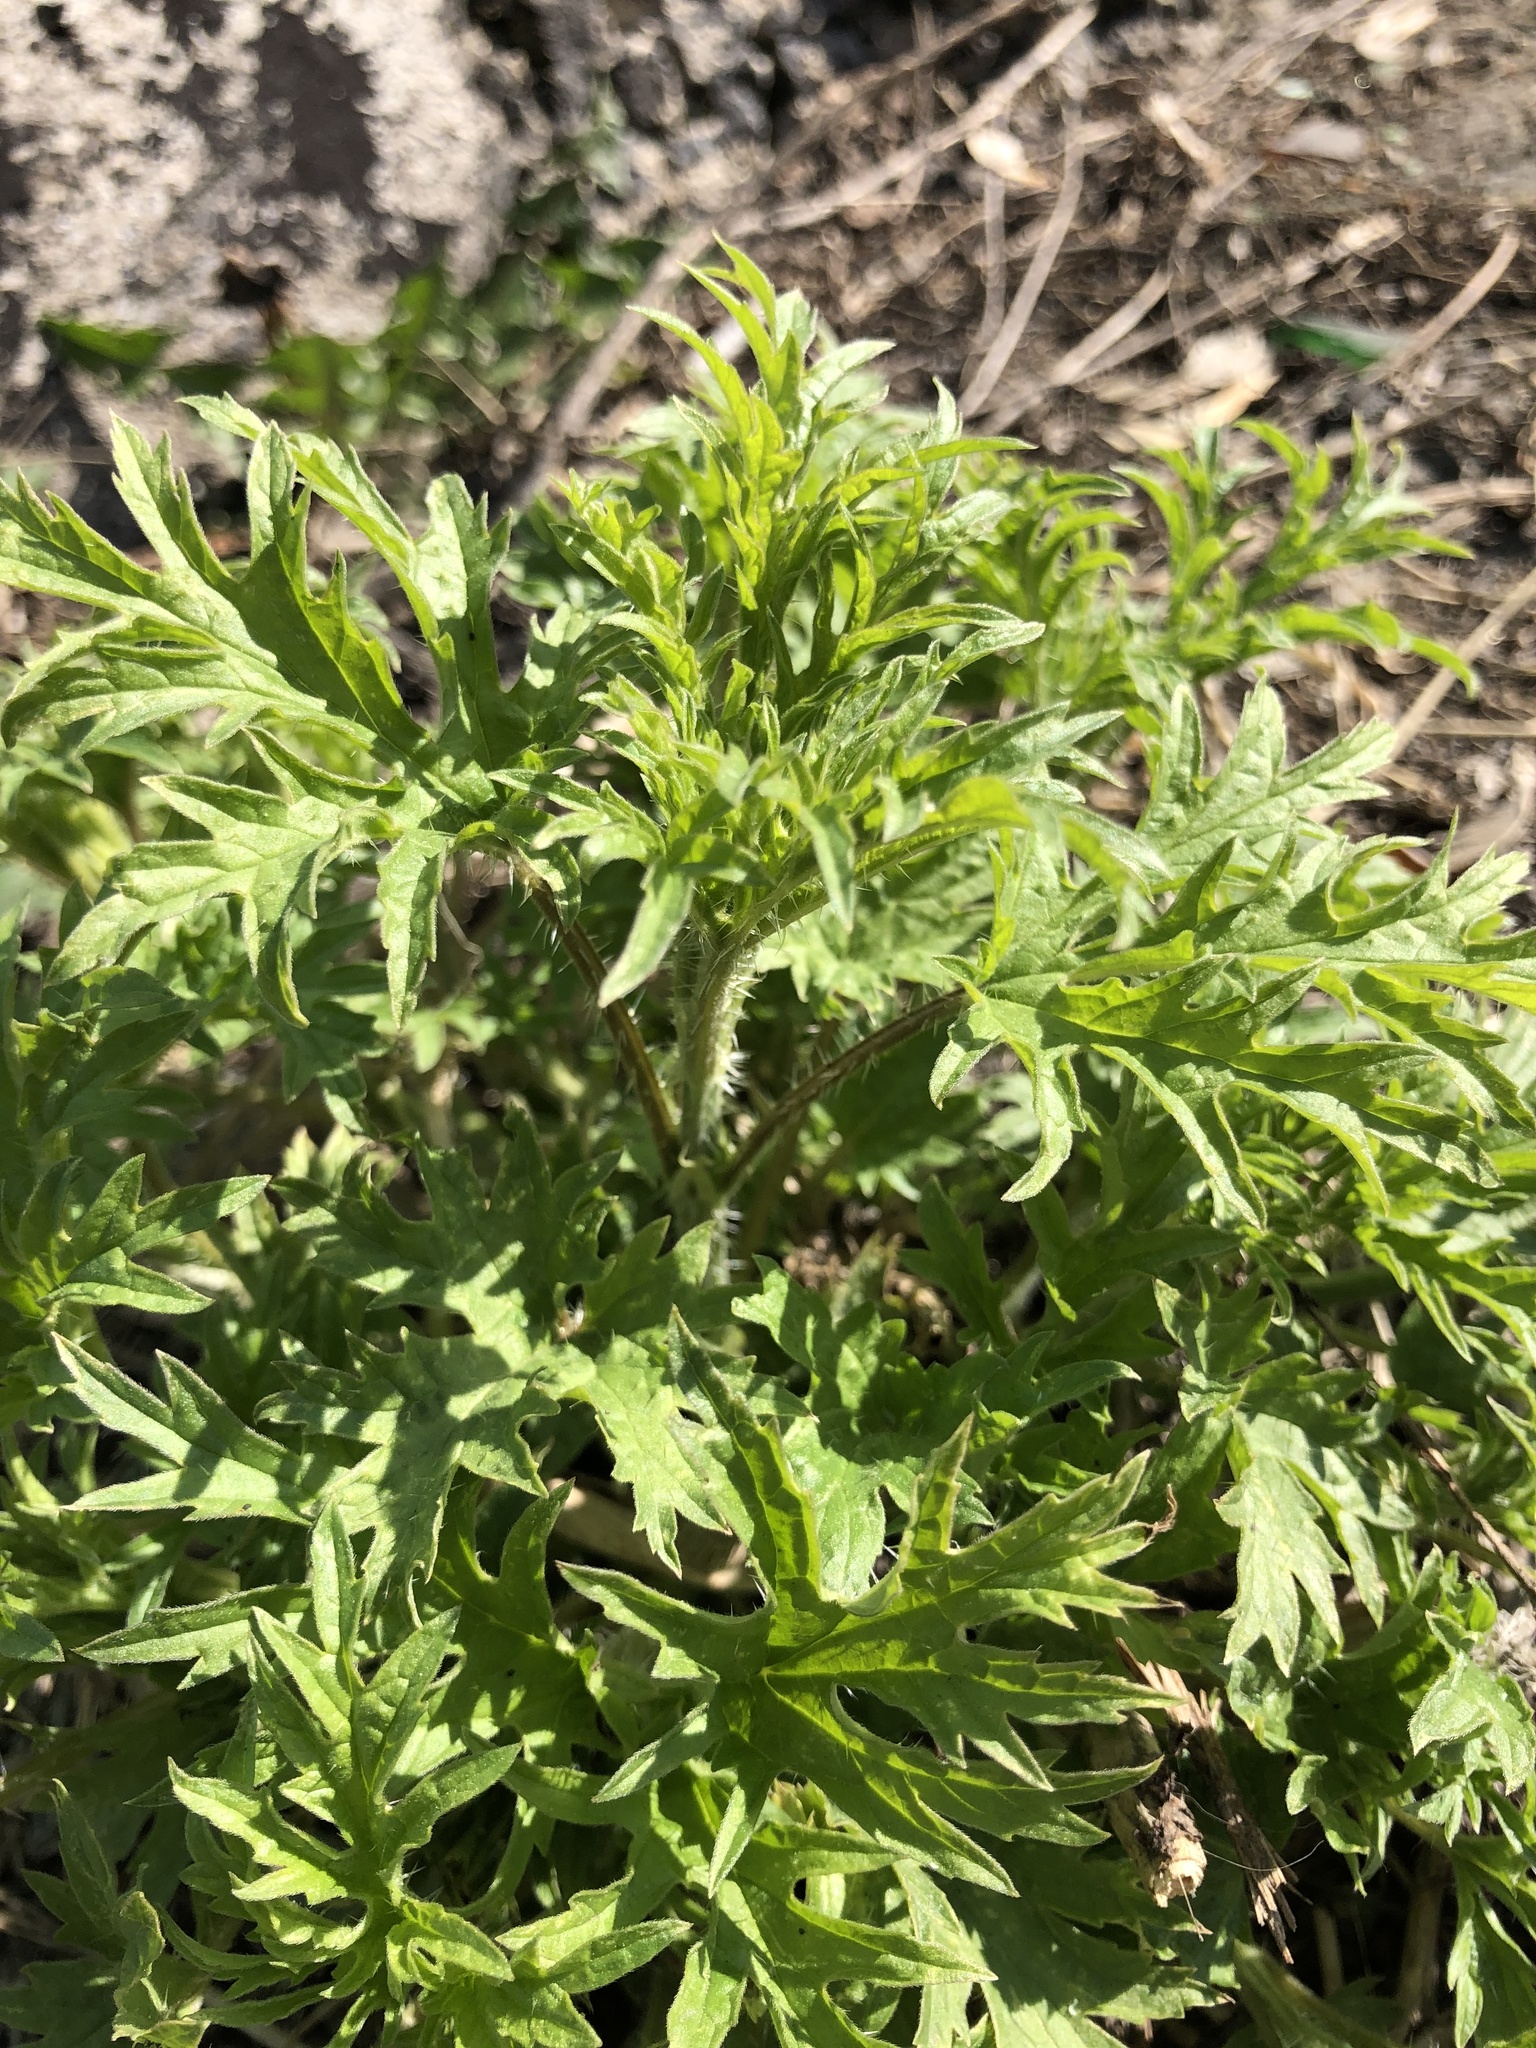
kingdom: Plantae
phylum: Tracheophyta
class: Magnoliopsida
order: Rosales
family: Urticaceae
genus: Urtica
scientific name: Urtica cannabina
